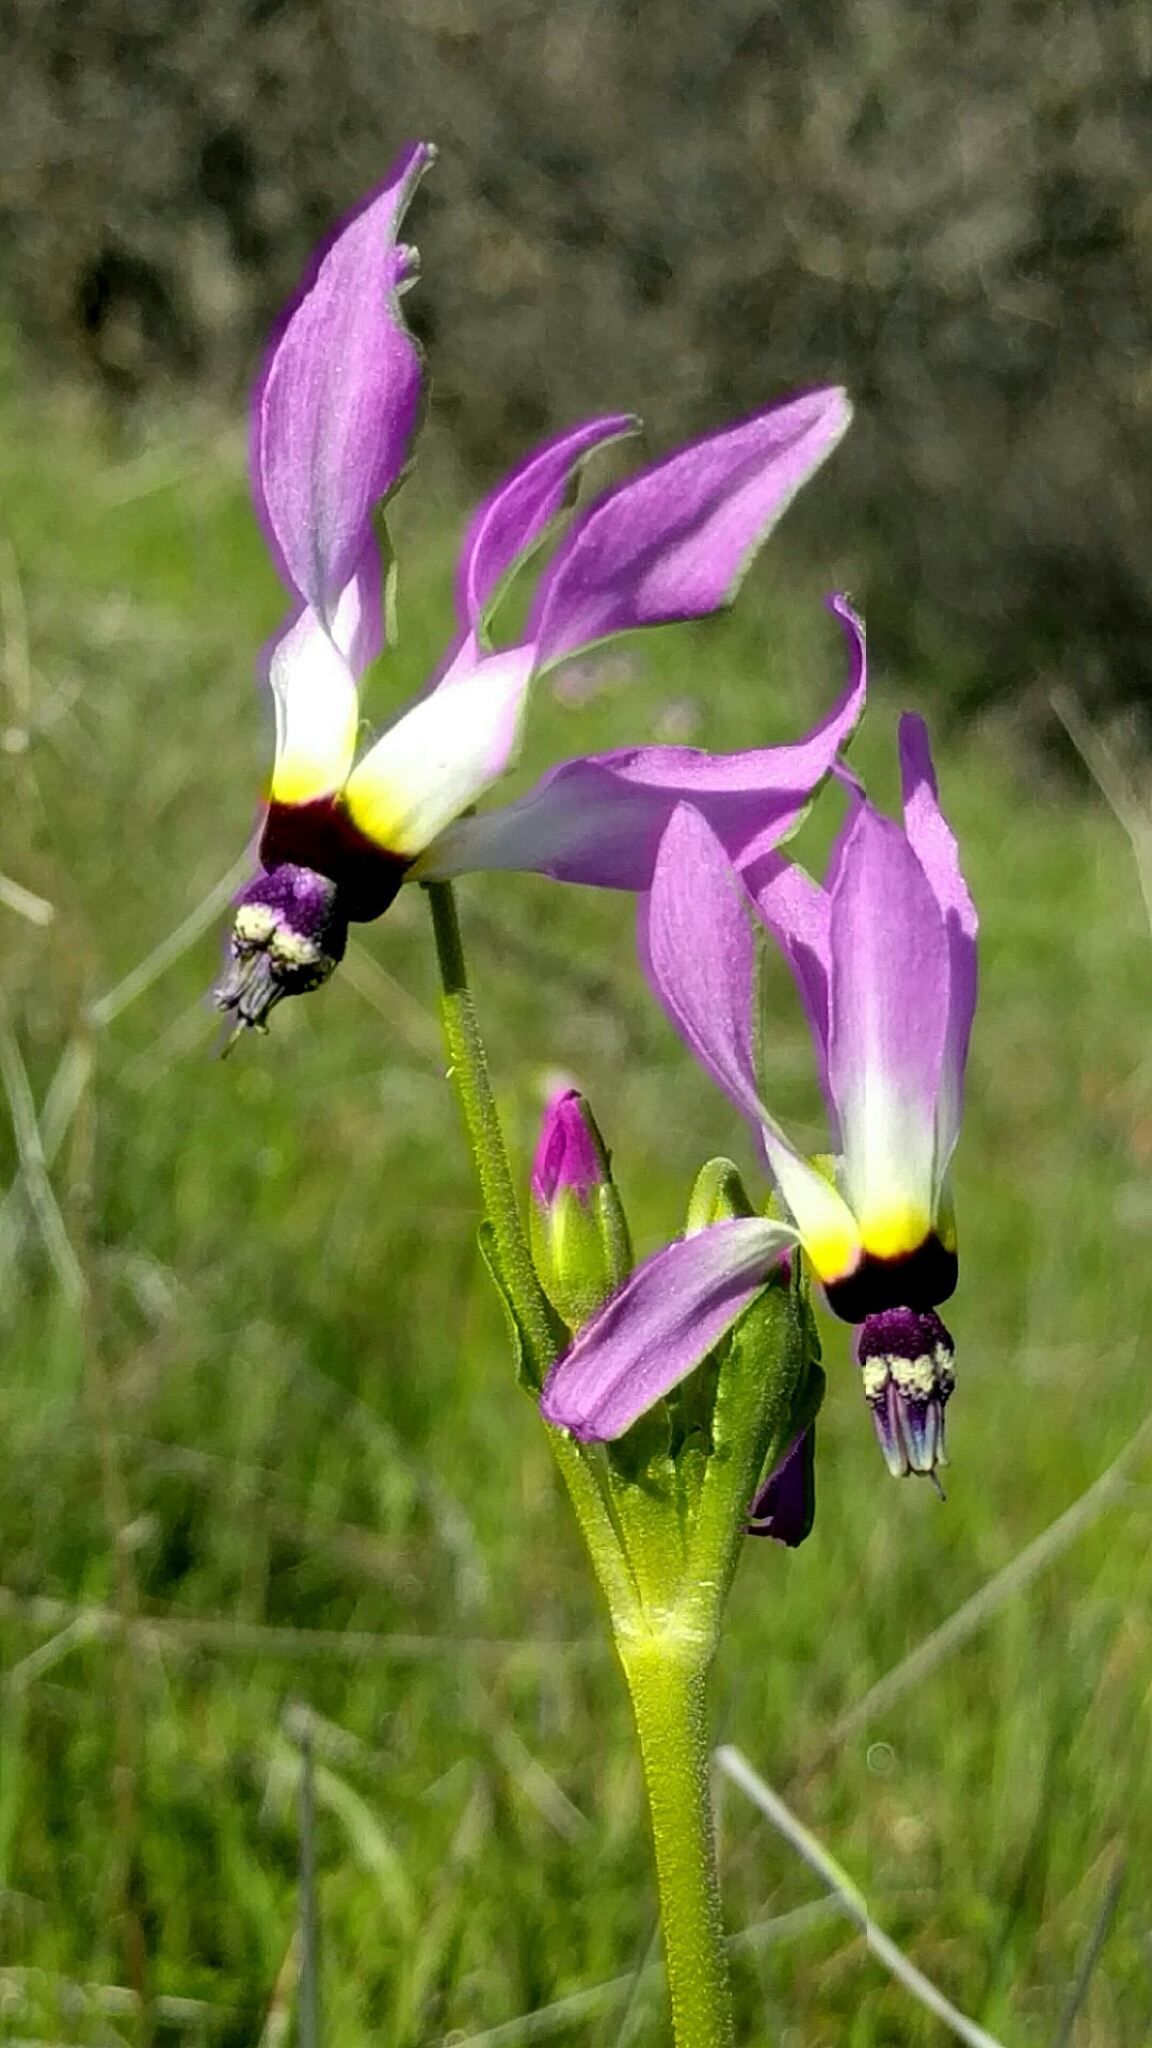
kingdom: Plantae
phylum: Tracheophyta
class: Magnoliopsida
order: Ericales
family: Primulaceae
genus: Dodecatheon
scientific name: Dodecatheon clevelandii
